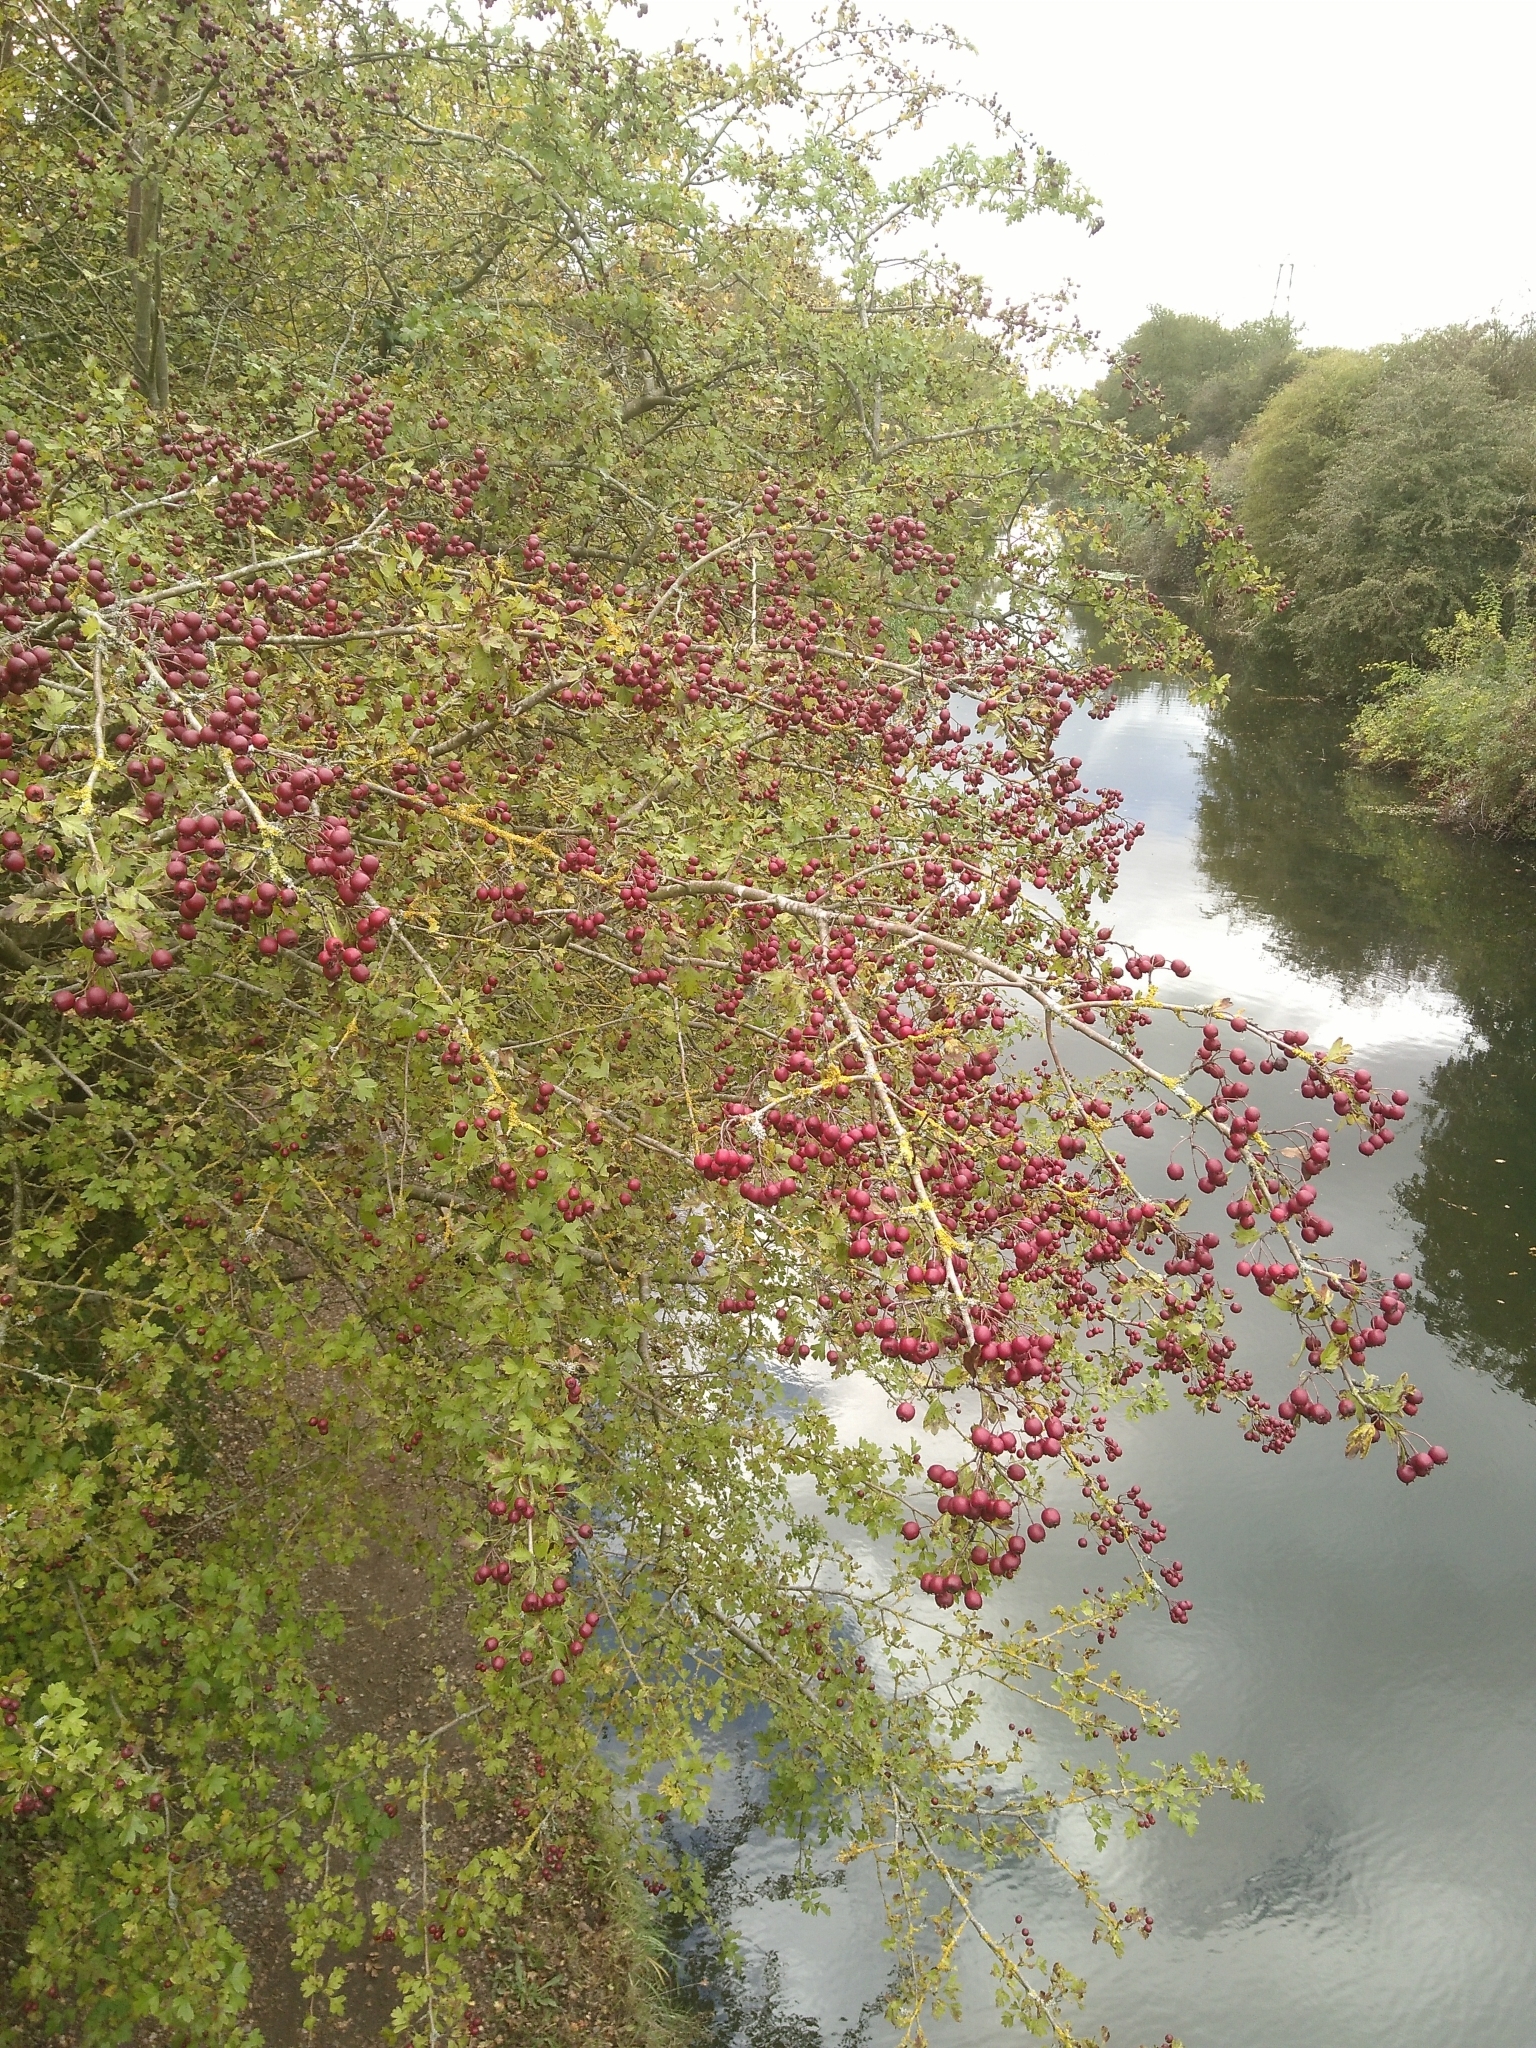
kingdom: Plantae
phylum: Tracheophyta
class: Magnoliopsida
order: Rosales
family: Rosaceae
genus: Crataegus
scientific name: Crataegus monogyna
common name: Hawthorn
